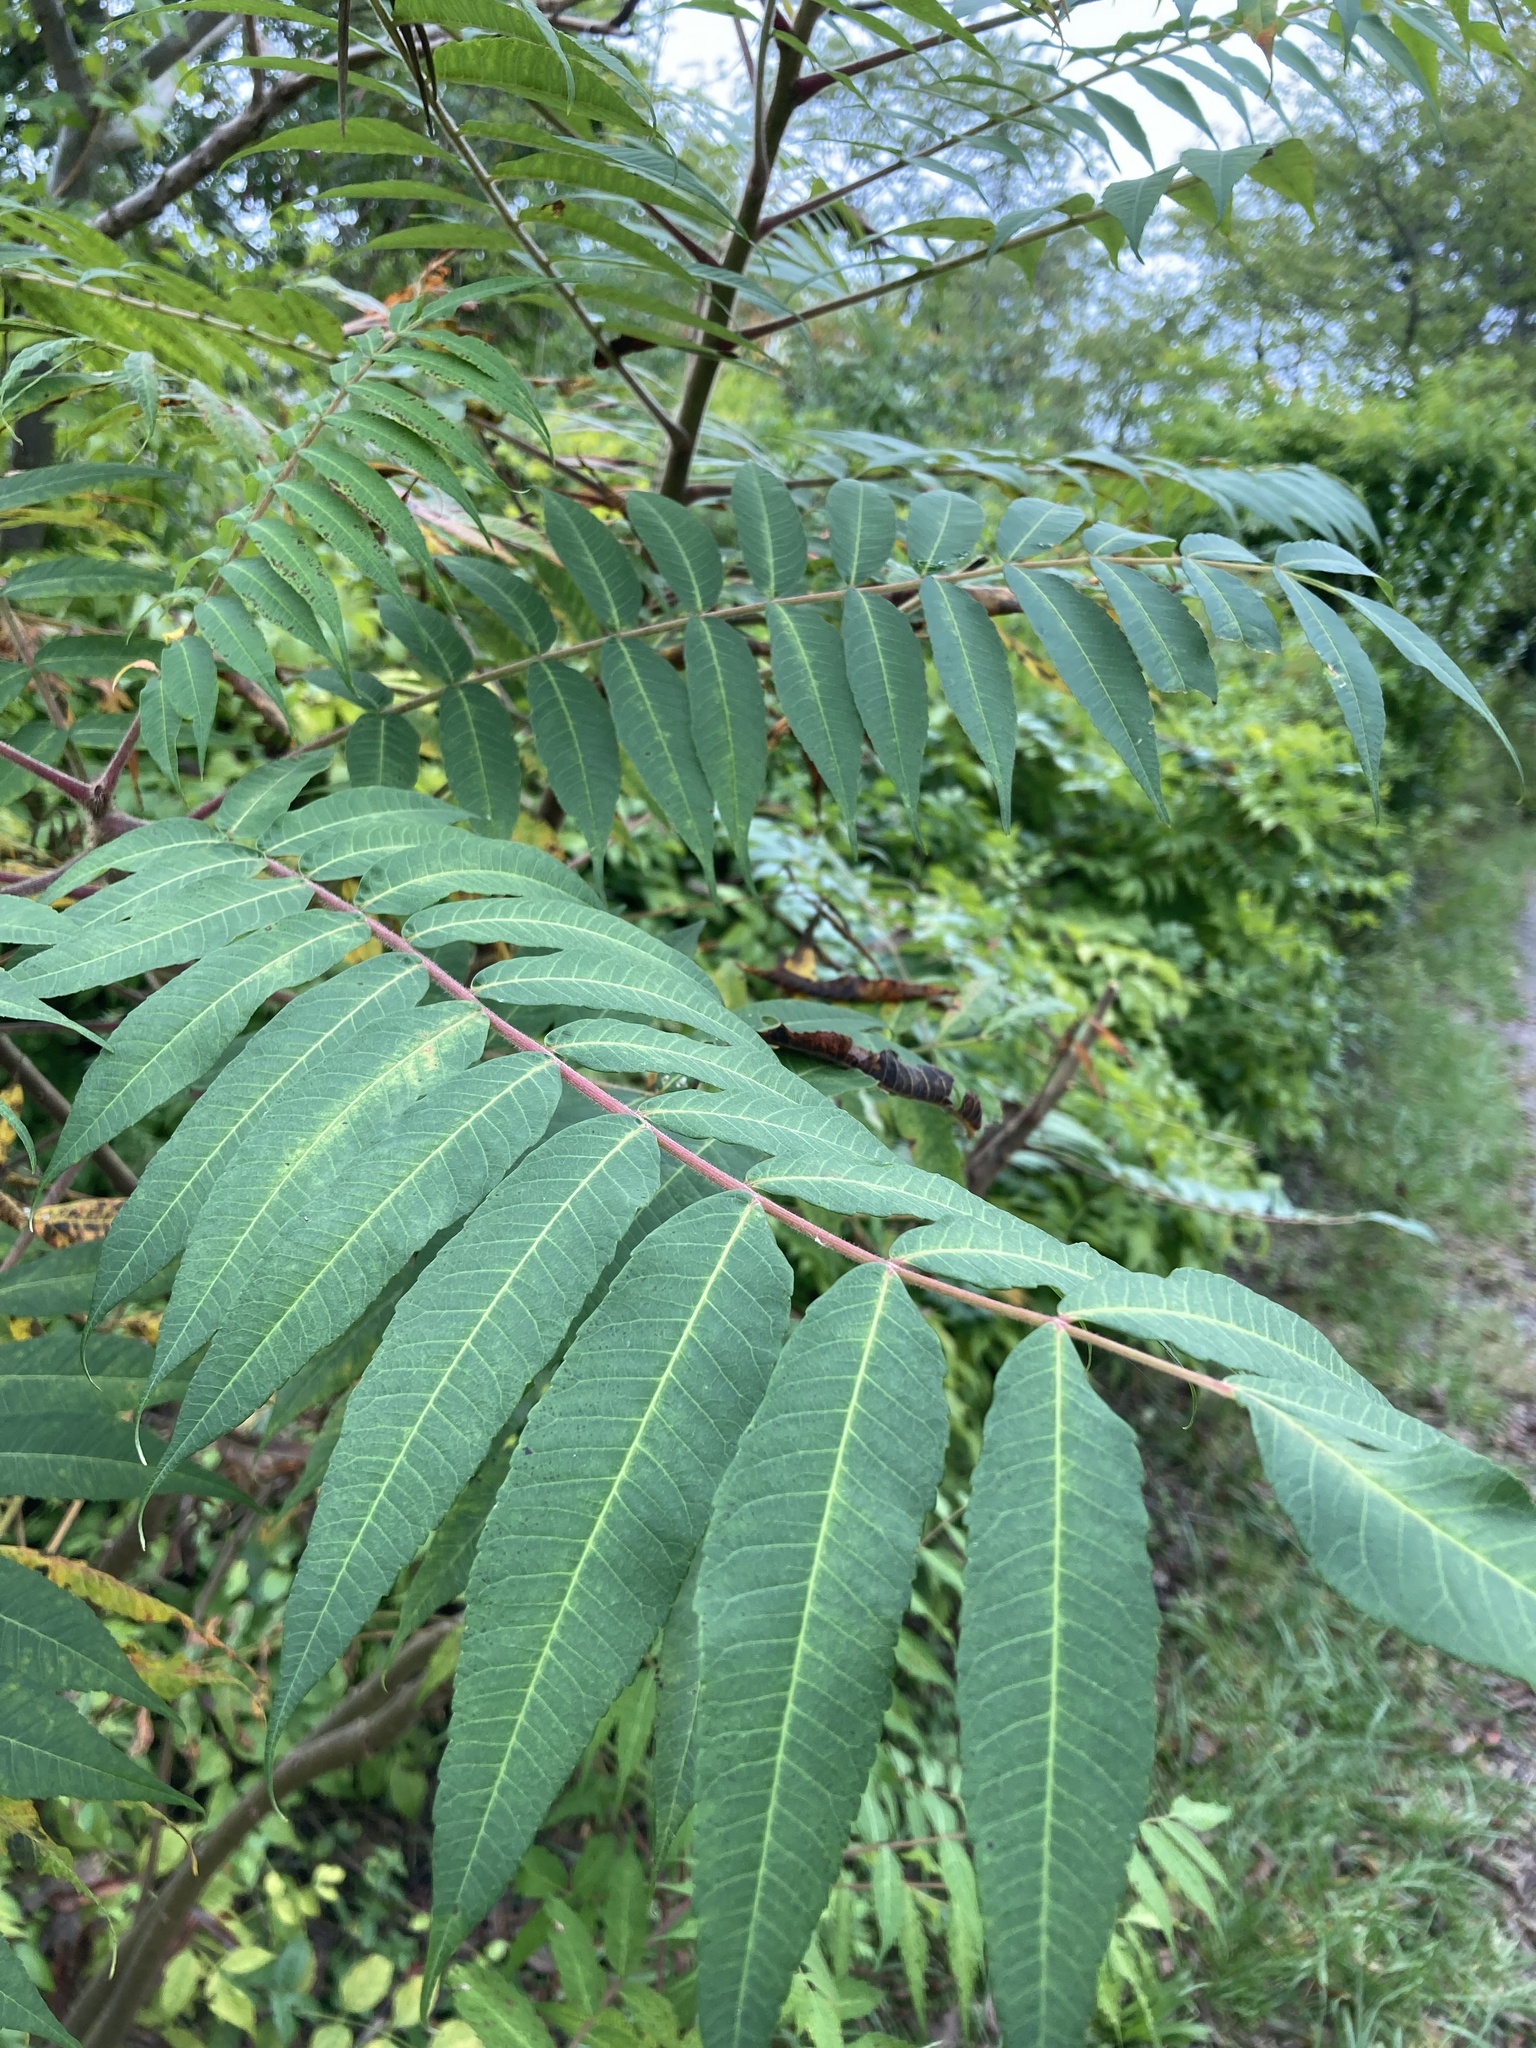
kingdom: Plantae
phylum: Tracheophyta
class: Magnoliopsida
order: Sapindales
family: Anacardiaceae
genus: Rhus
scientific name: Rhus typhina
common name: Staghorn sumac
